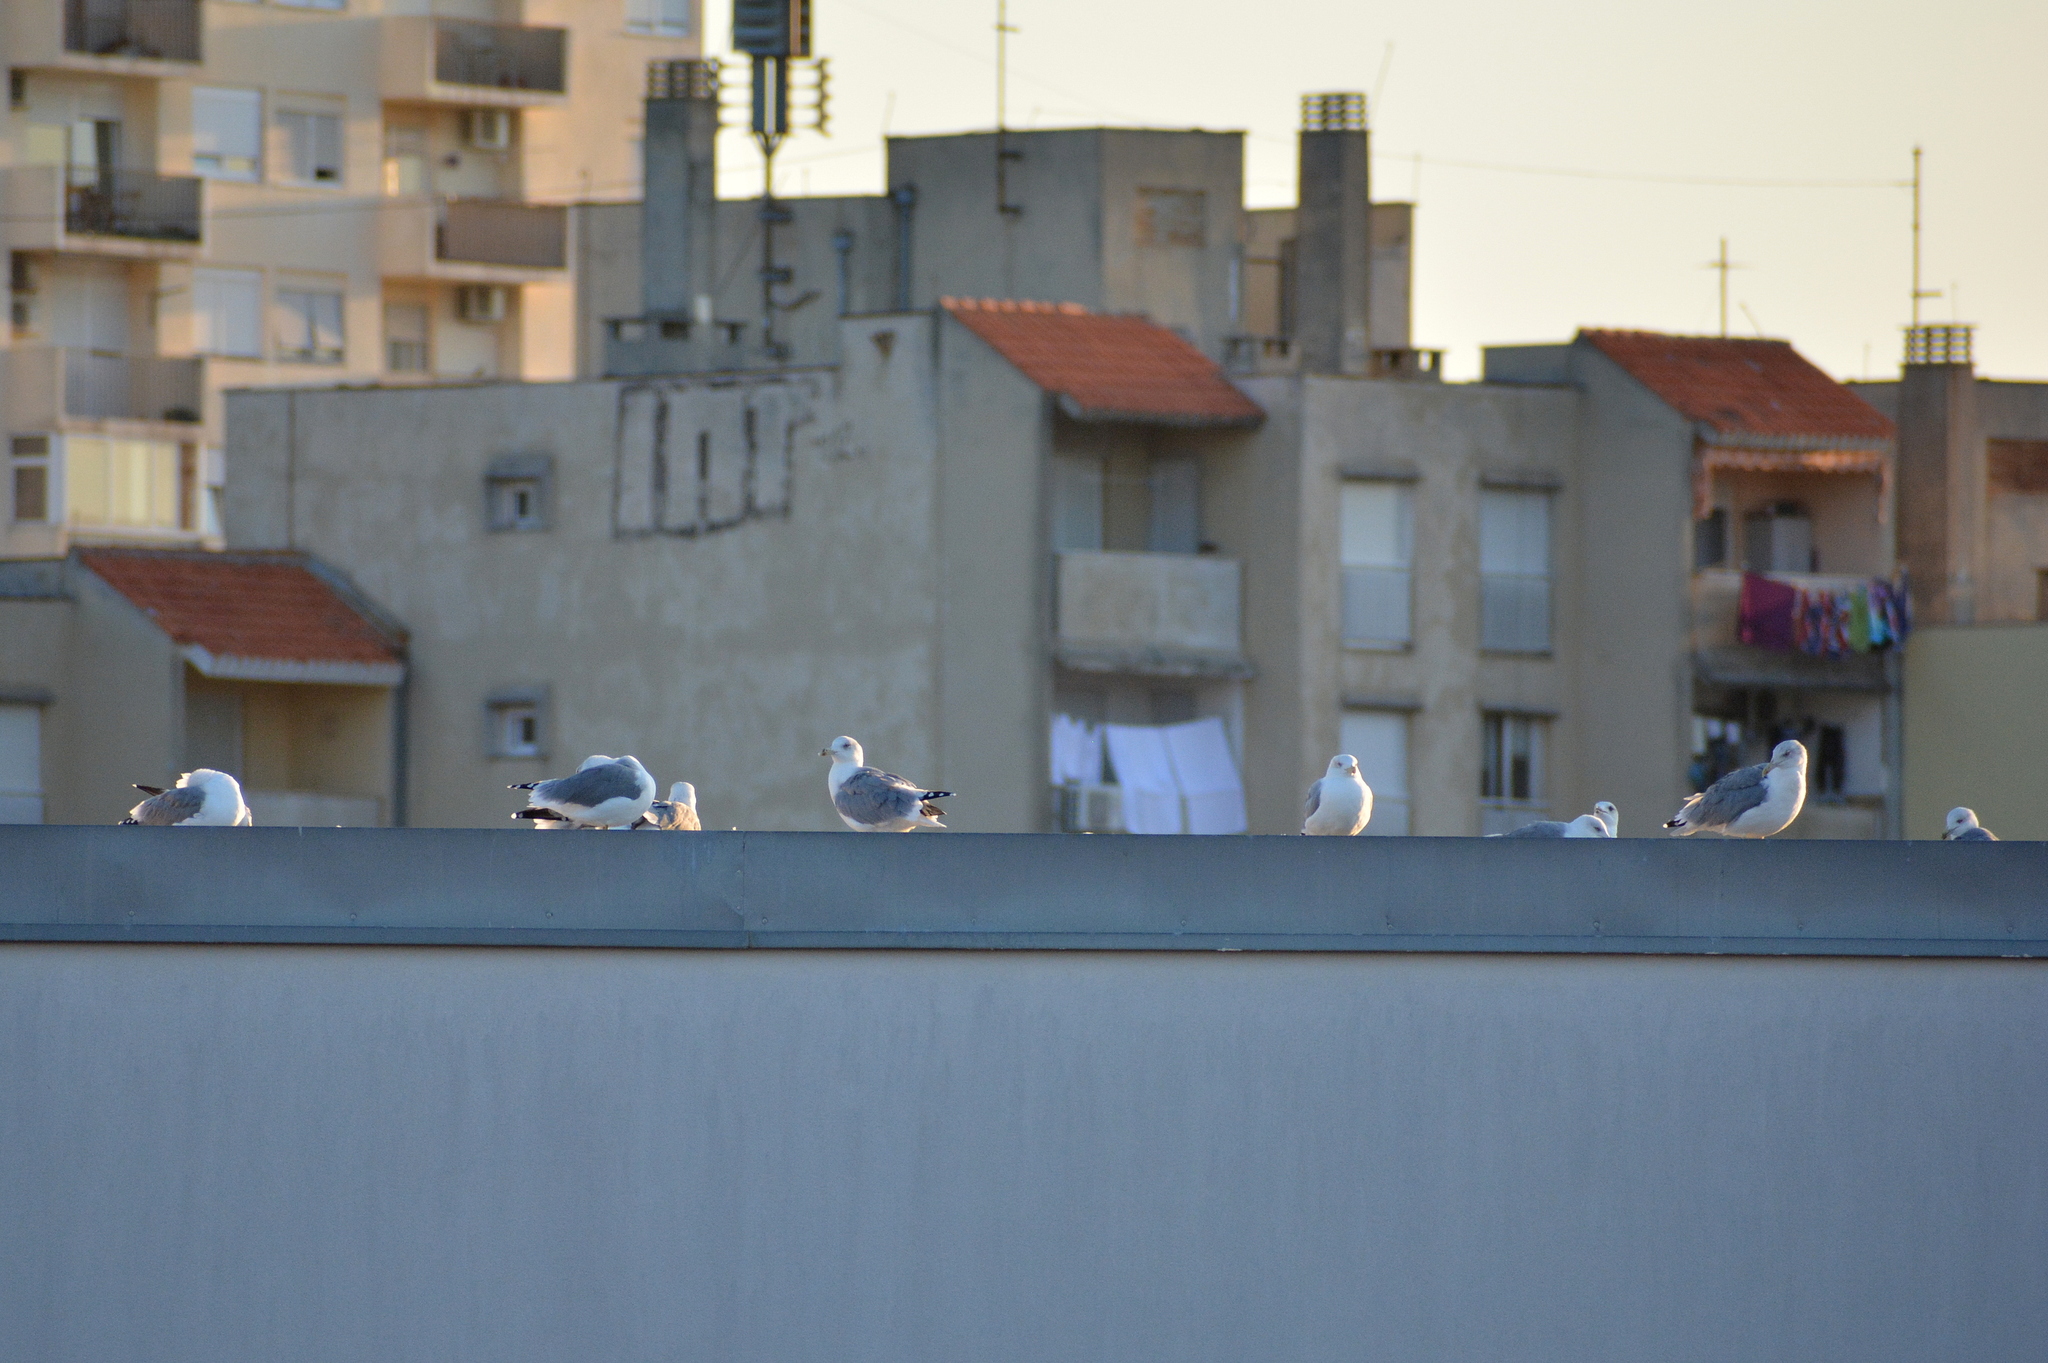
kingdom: Animalia
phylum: Chordata
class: Aves
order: Charadriiformes
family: Laridae
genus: Larus
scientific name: Larus michahellis
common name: Yellow-legged gull
